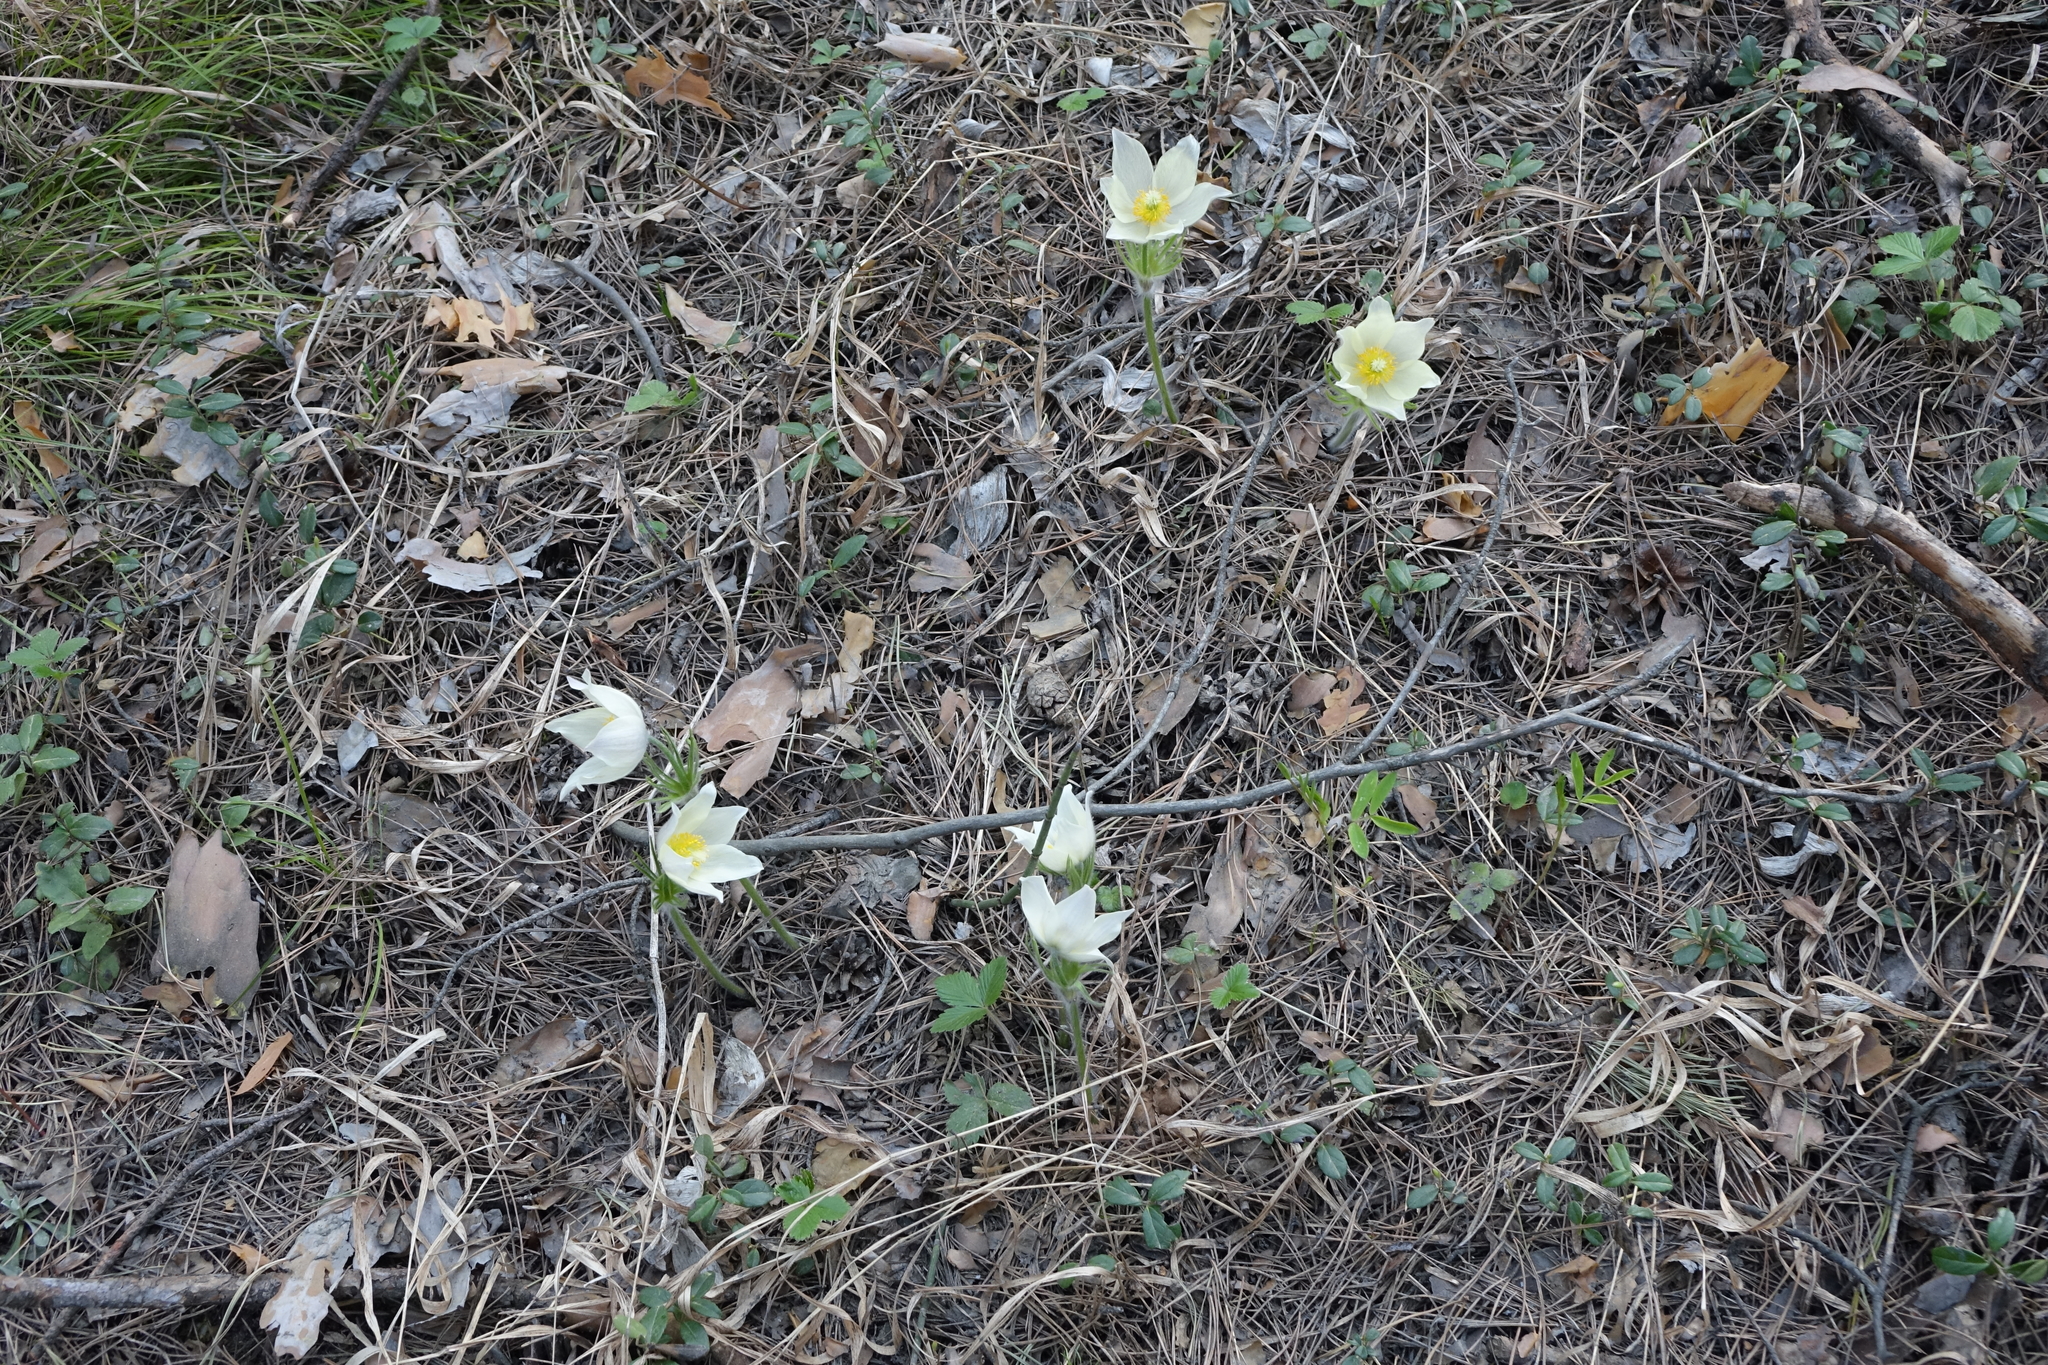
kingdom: Plantae
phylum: Tracheophyta
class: Magnoliopsida
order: Ranunculales
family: Ranunculaceae
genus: Pulsatilla
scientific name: Pulsatilla patens
